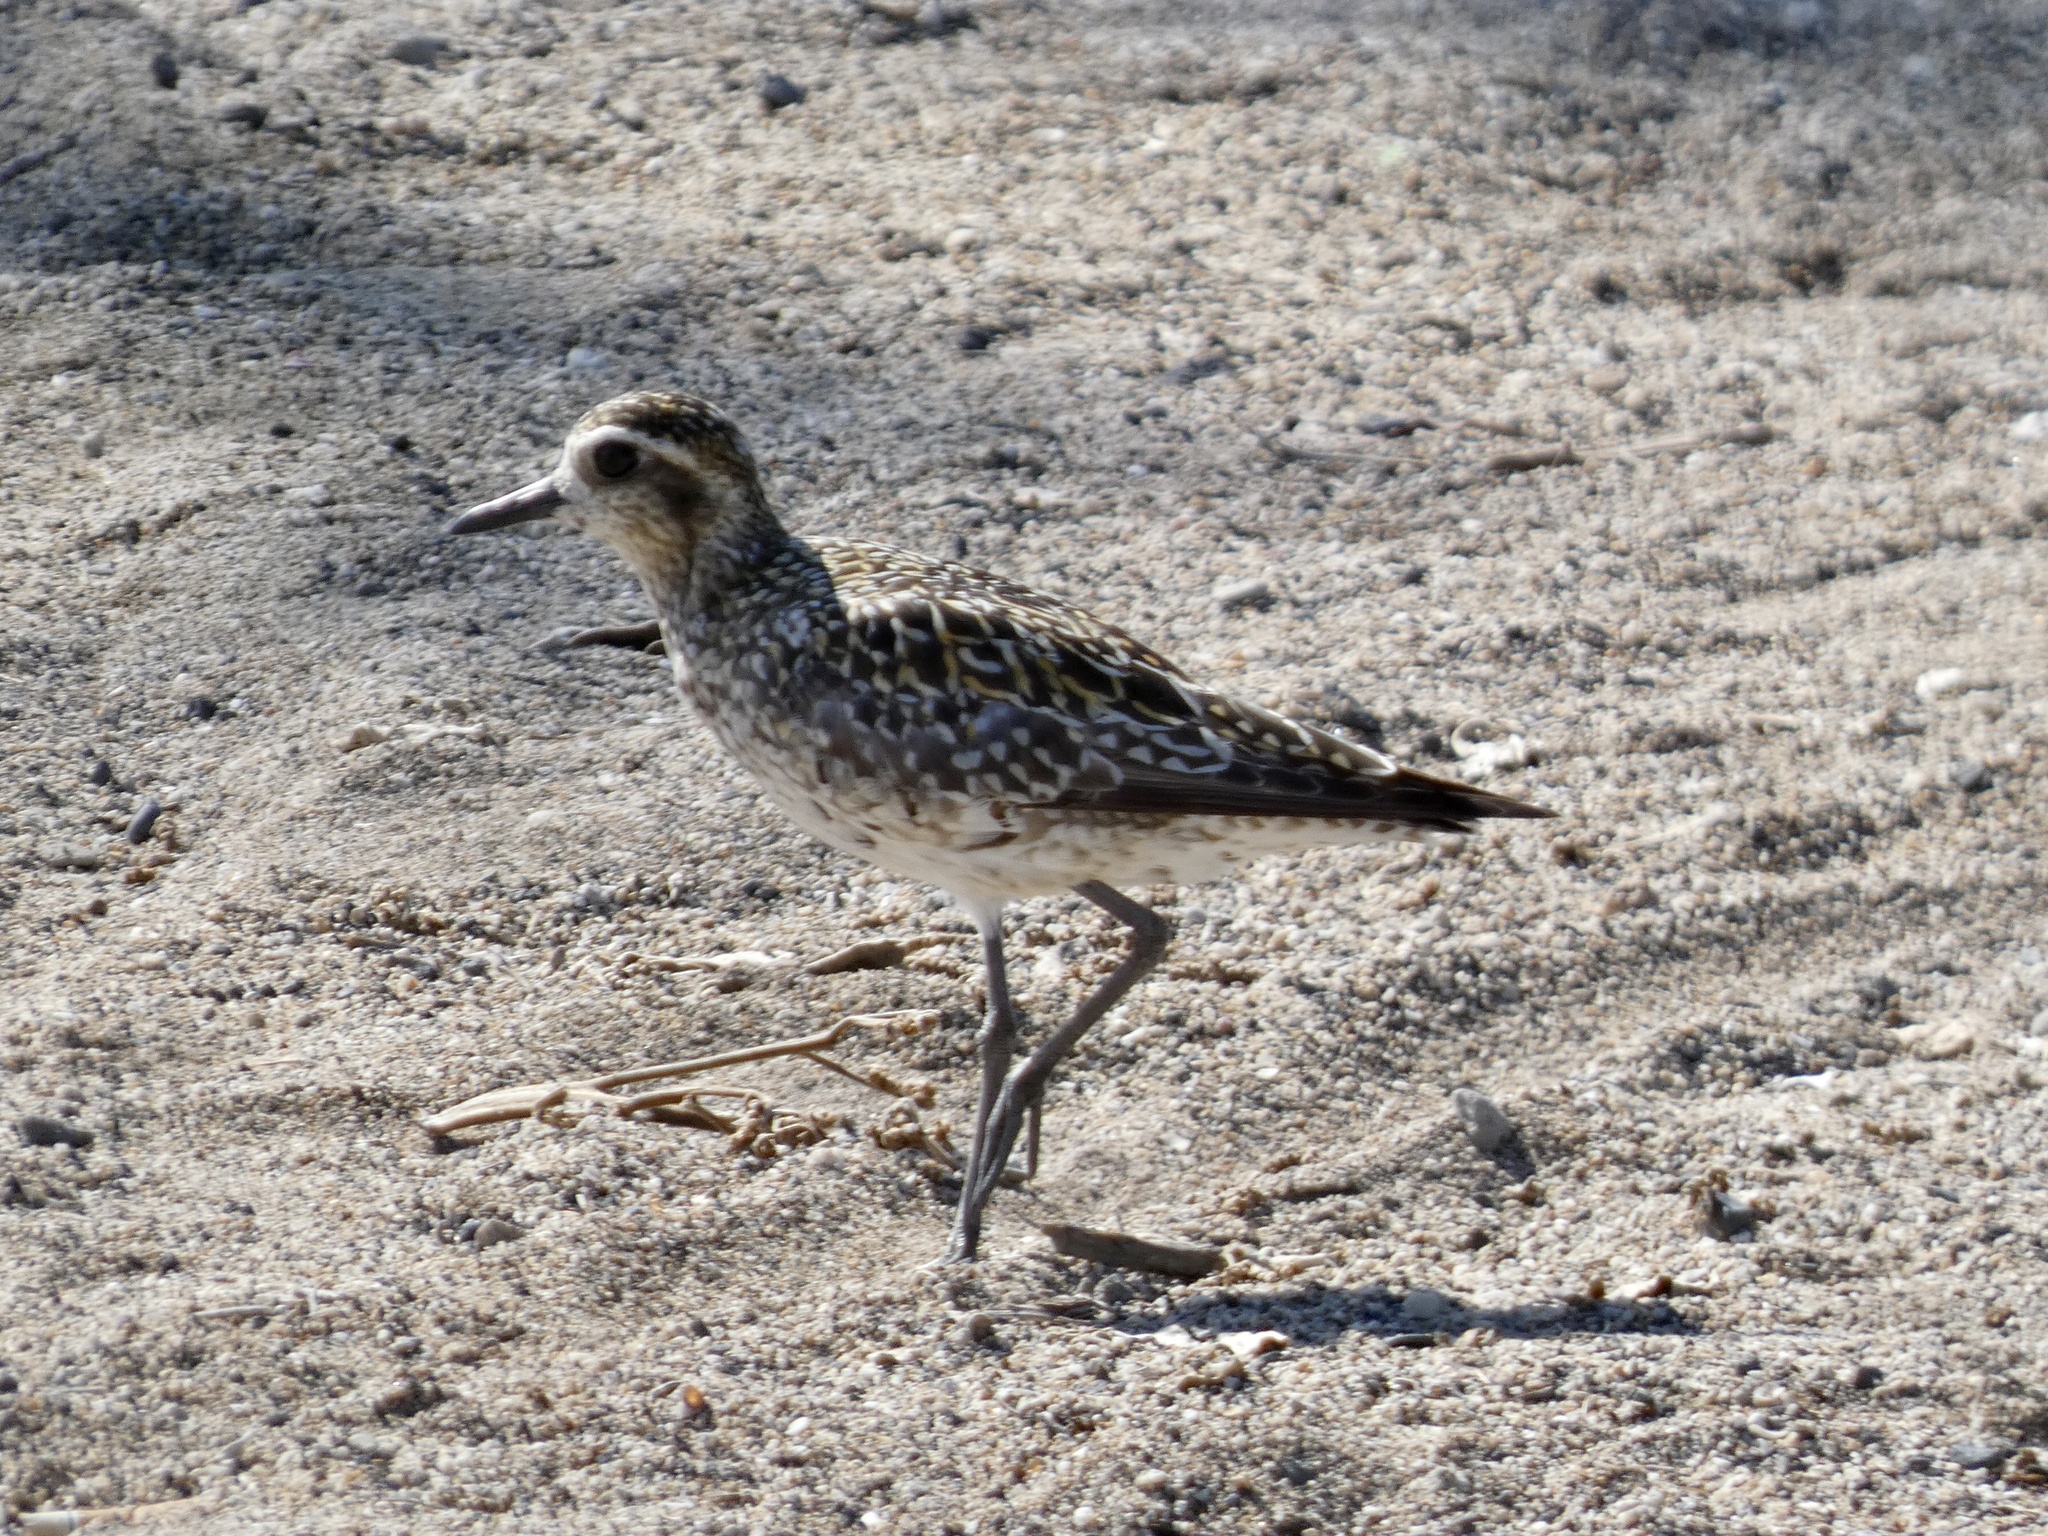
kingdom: Animalia
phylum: Chordata
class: Aves
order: Charadriiformes
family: Charadriidae
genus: Pluvialis
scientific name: Pluvialis fulva
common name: Pacific golden plover
